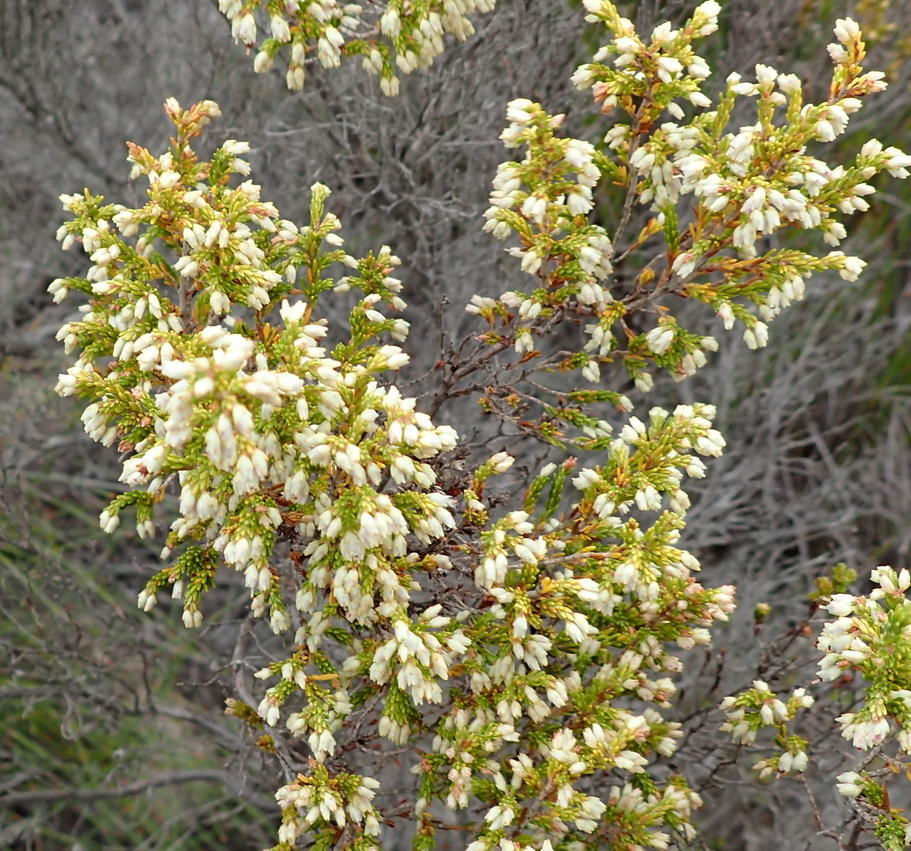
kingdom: Plantae
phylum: Tracheophyta
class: Magnoliopsida
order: Ericales
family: Ericaceae
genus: Erica
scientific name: Erica lasciva
